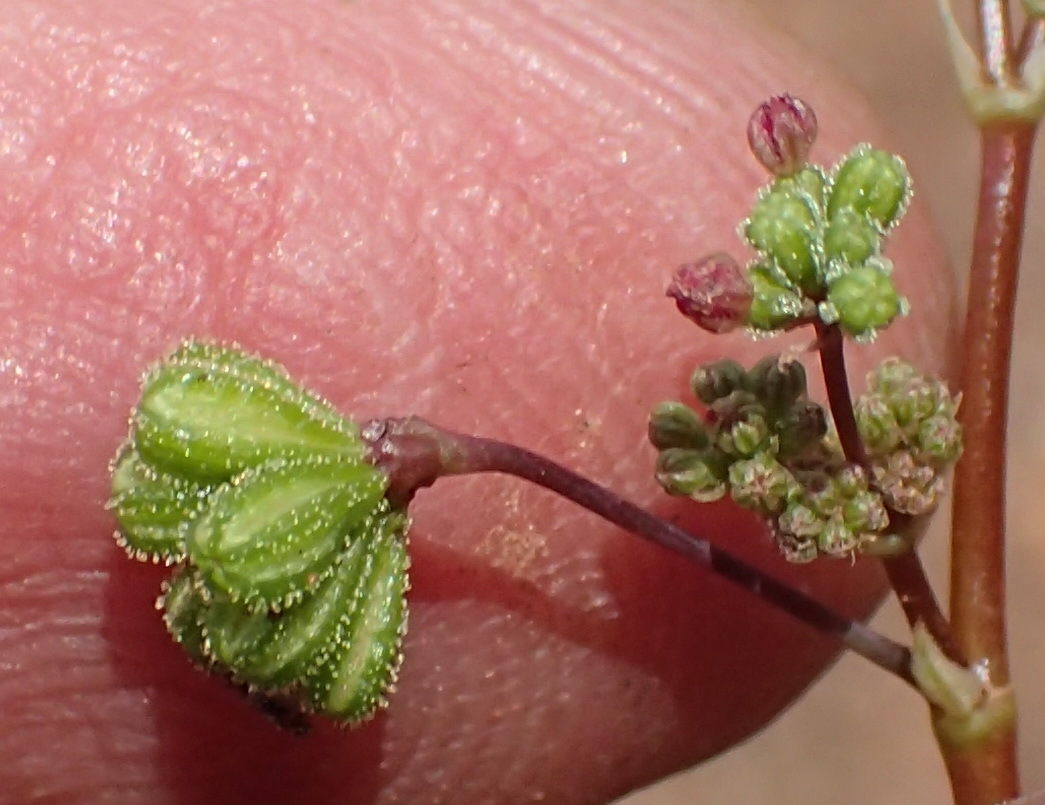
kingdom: Plantae
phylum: Tracheophyta
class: Magnoliopsida
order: Caryophyllales
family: Nyctaginaceae
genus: Boerhavia
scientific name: Boerhavia diffusa
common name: Red spiderling
